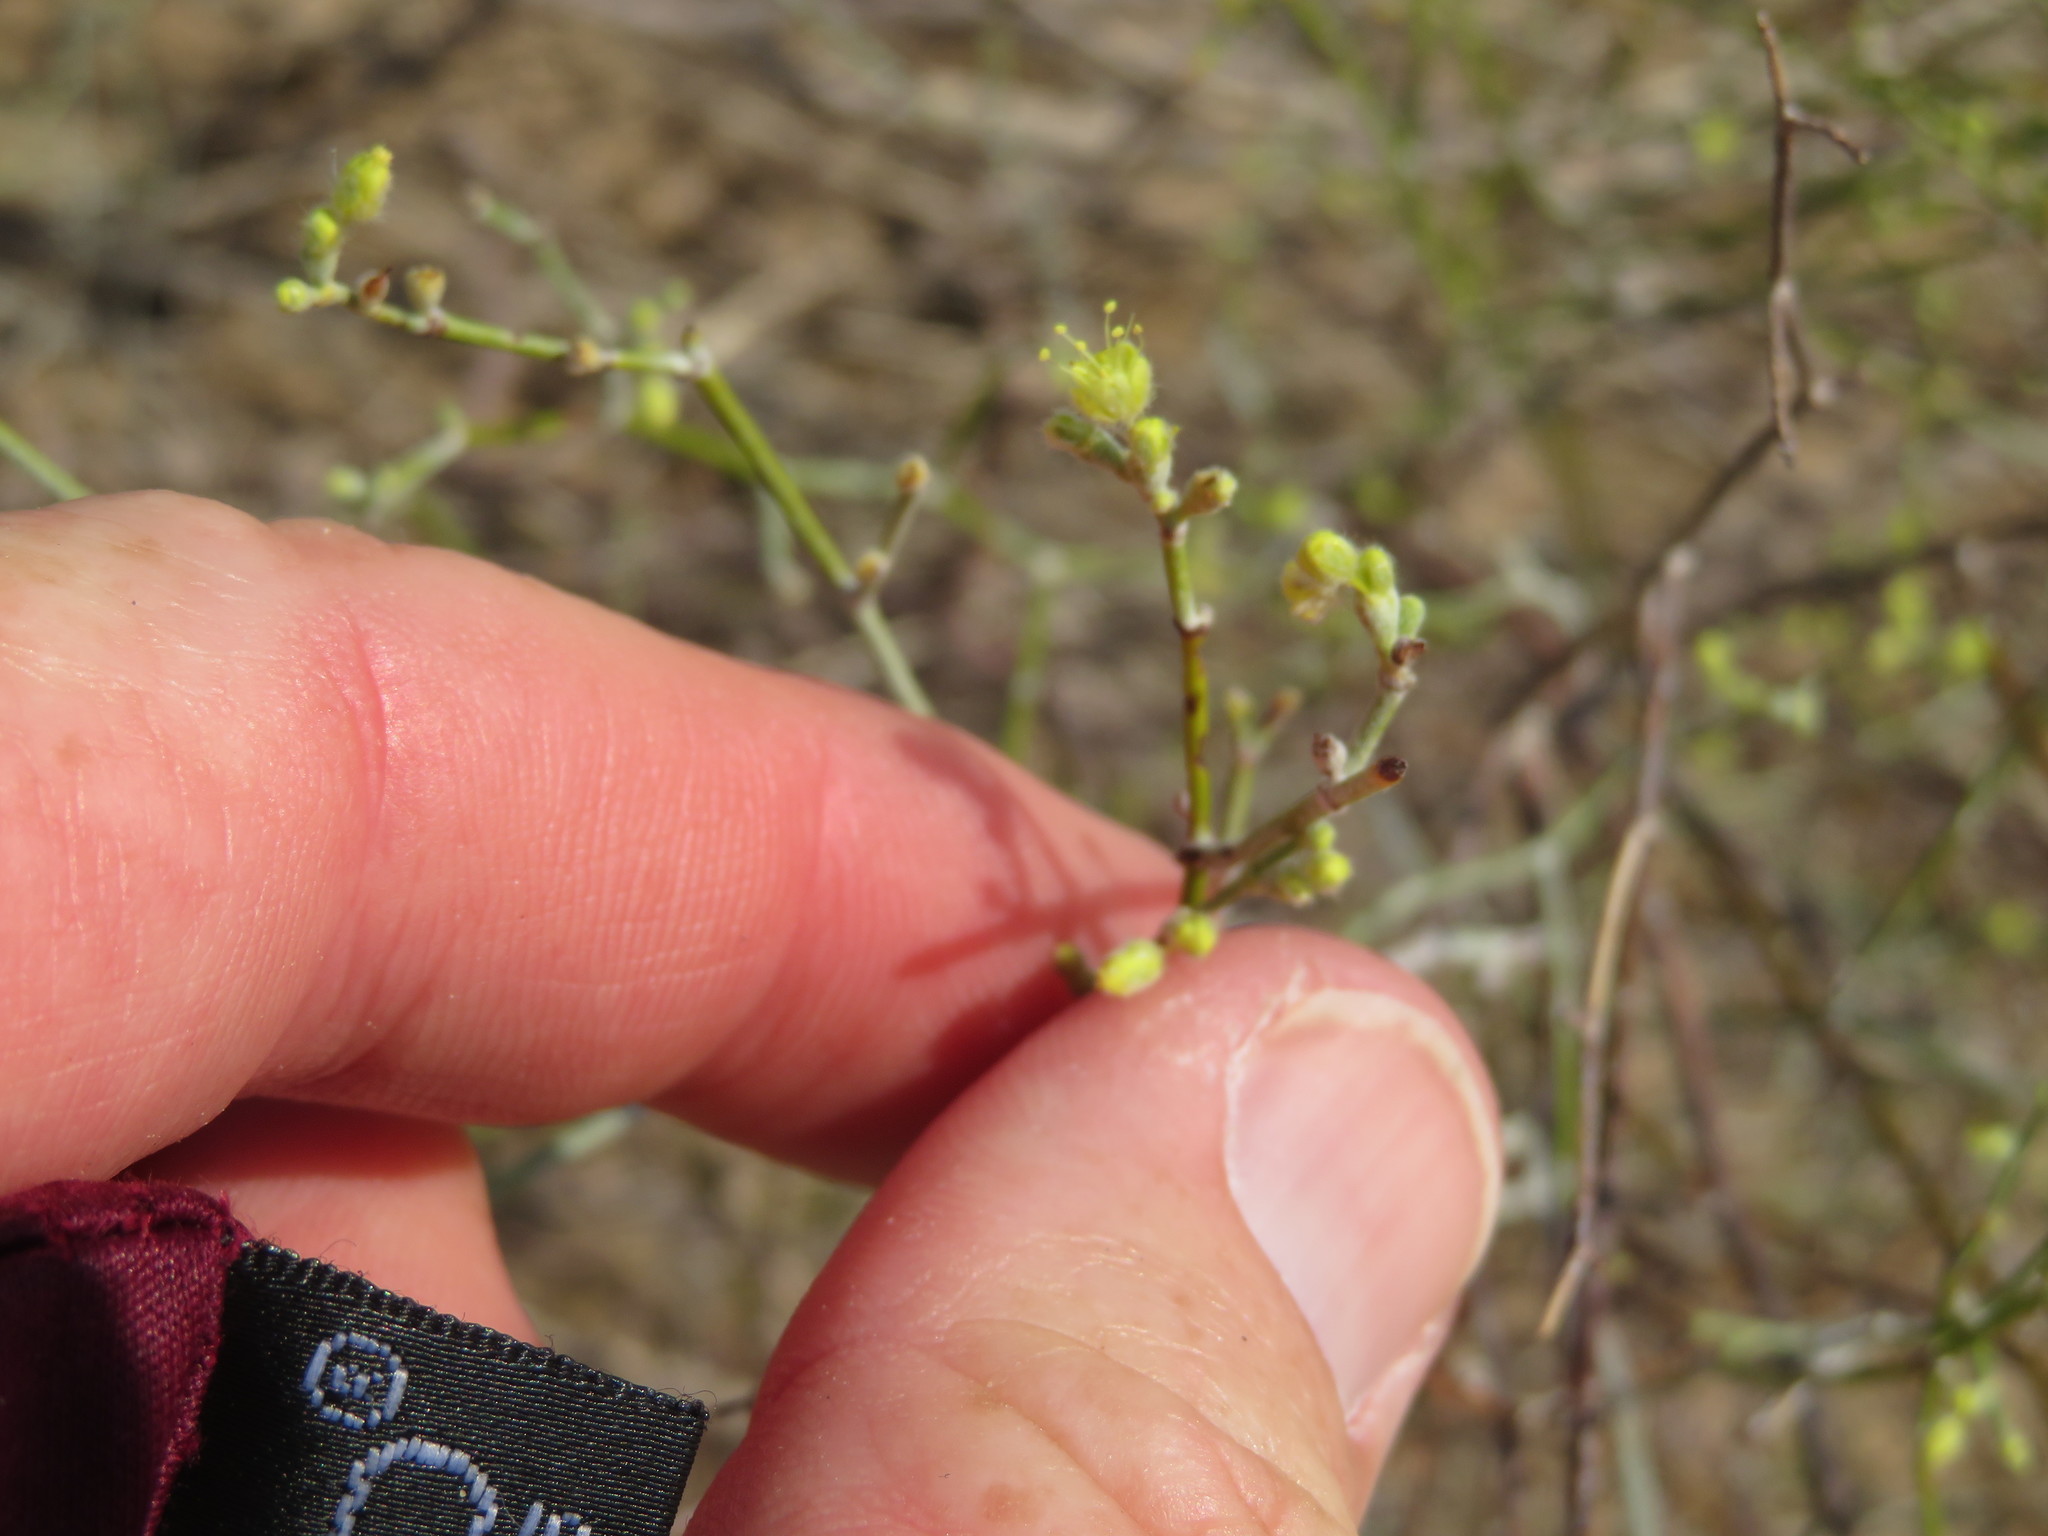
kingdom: Plantae
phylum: Tracheophyta
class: Magnoliopsida
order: Caryophyllales
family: Polygonaceae
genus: Eriogonum
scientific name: Eriogonum deserticola
